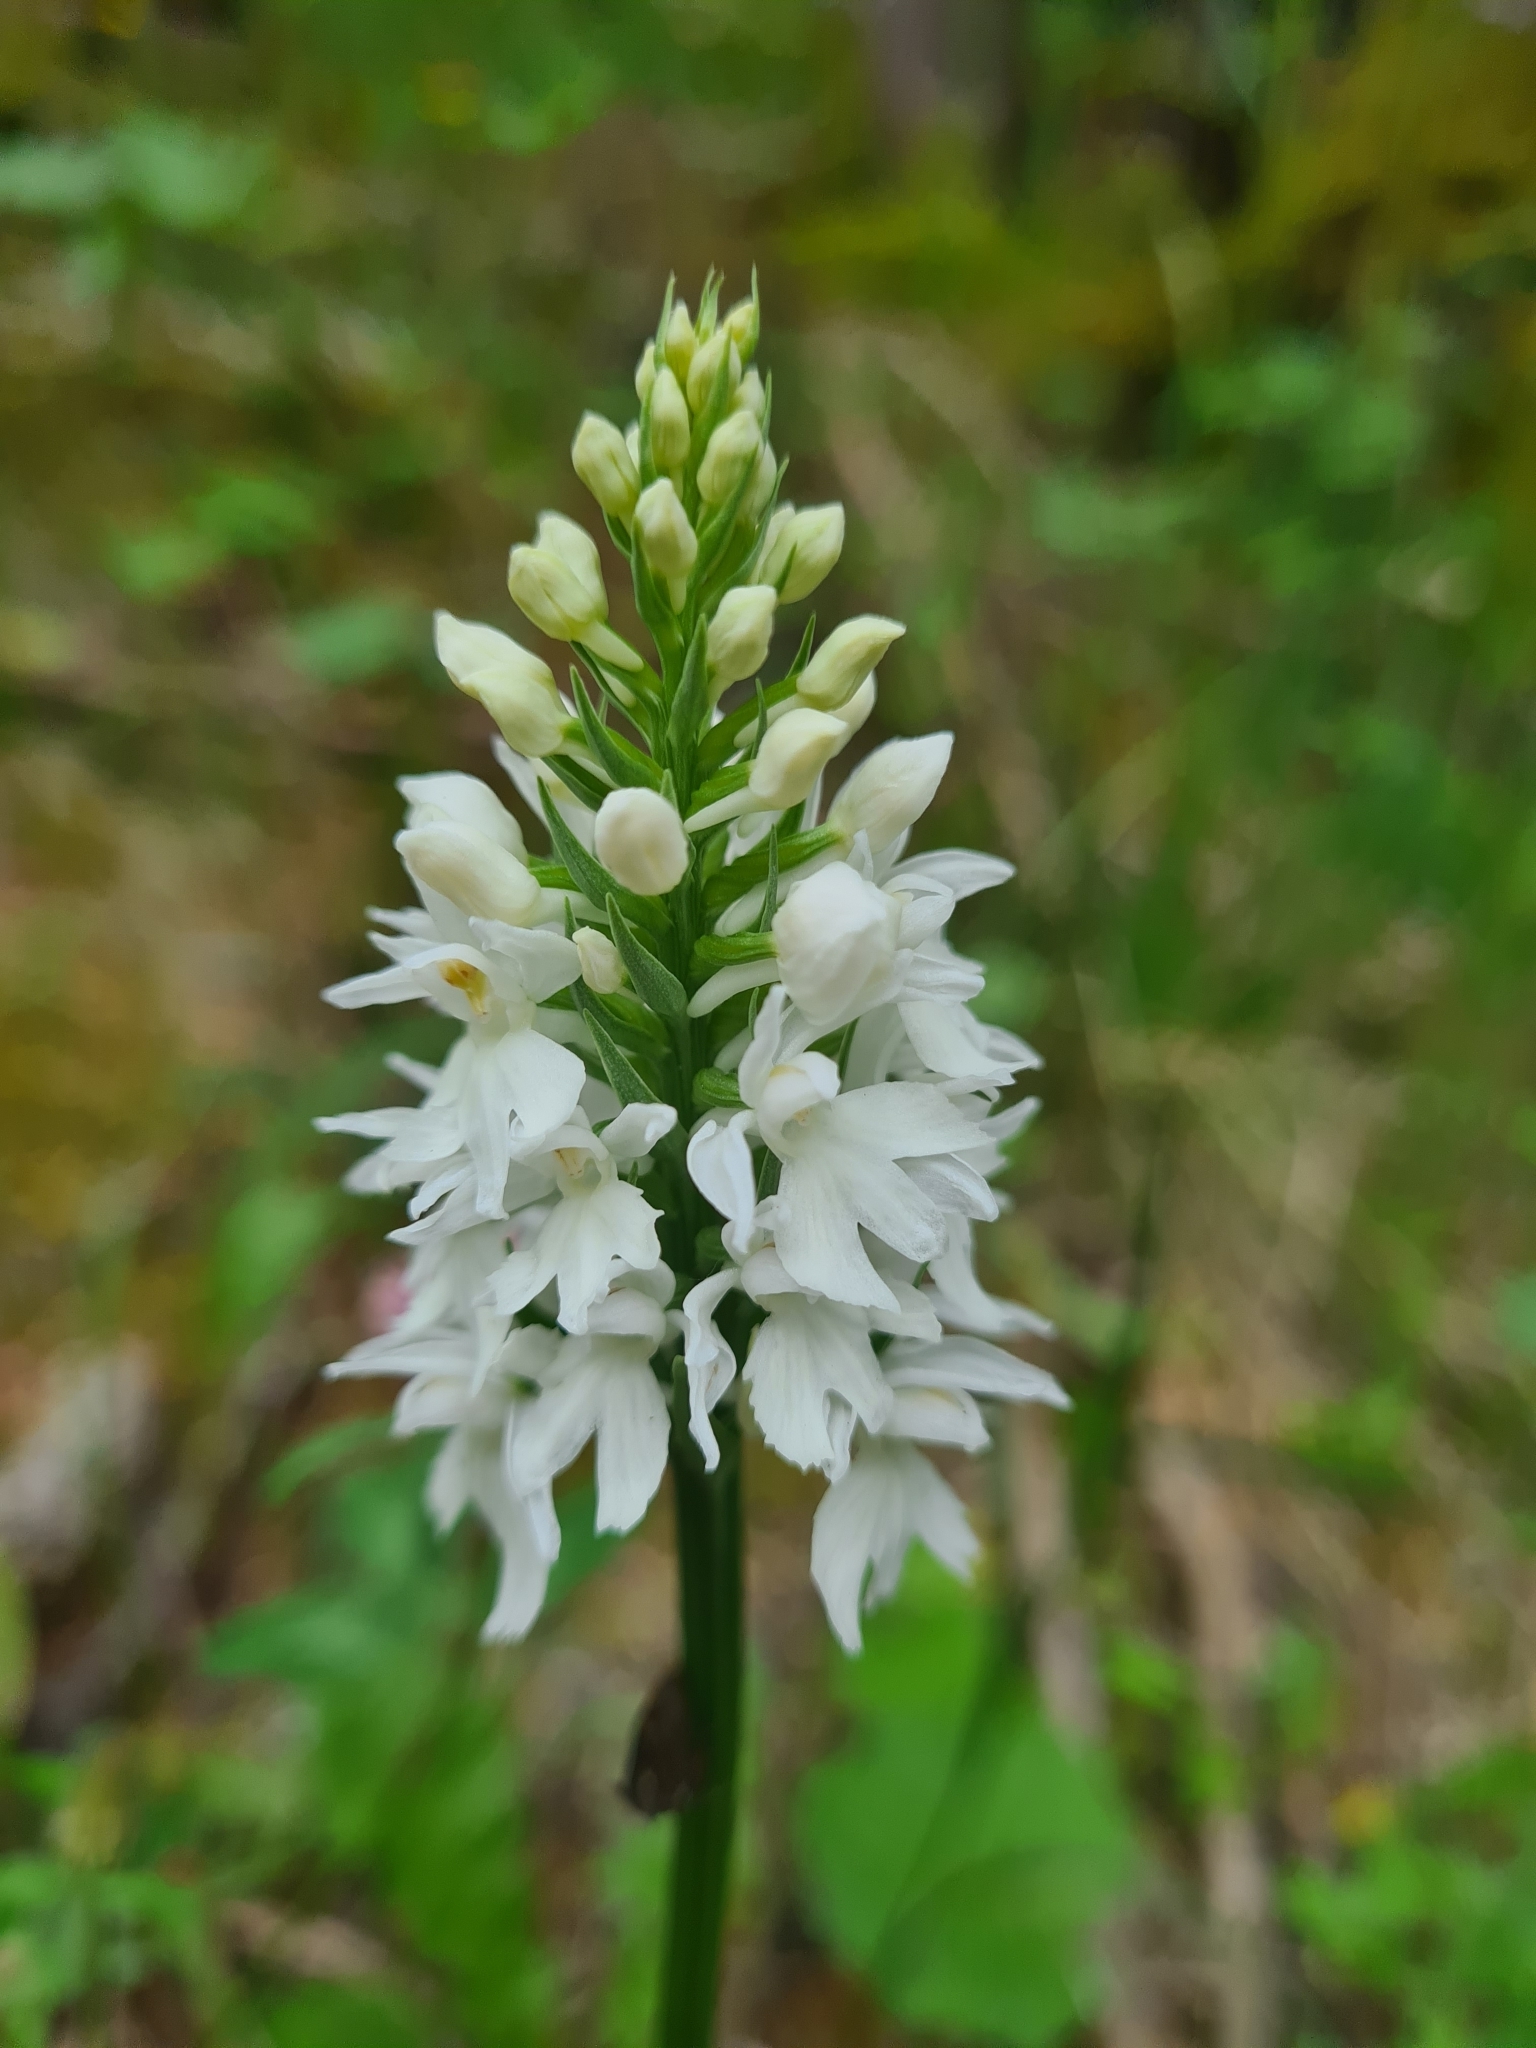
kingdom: Plantae
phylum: Tracheophyta
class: Liliopsida
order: Asparagales
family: Orchidaceae
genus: Dactylorhiza
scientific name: Dactylorhiza maculata
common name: Heath spotted-orchid
